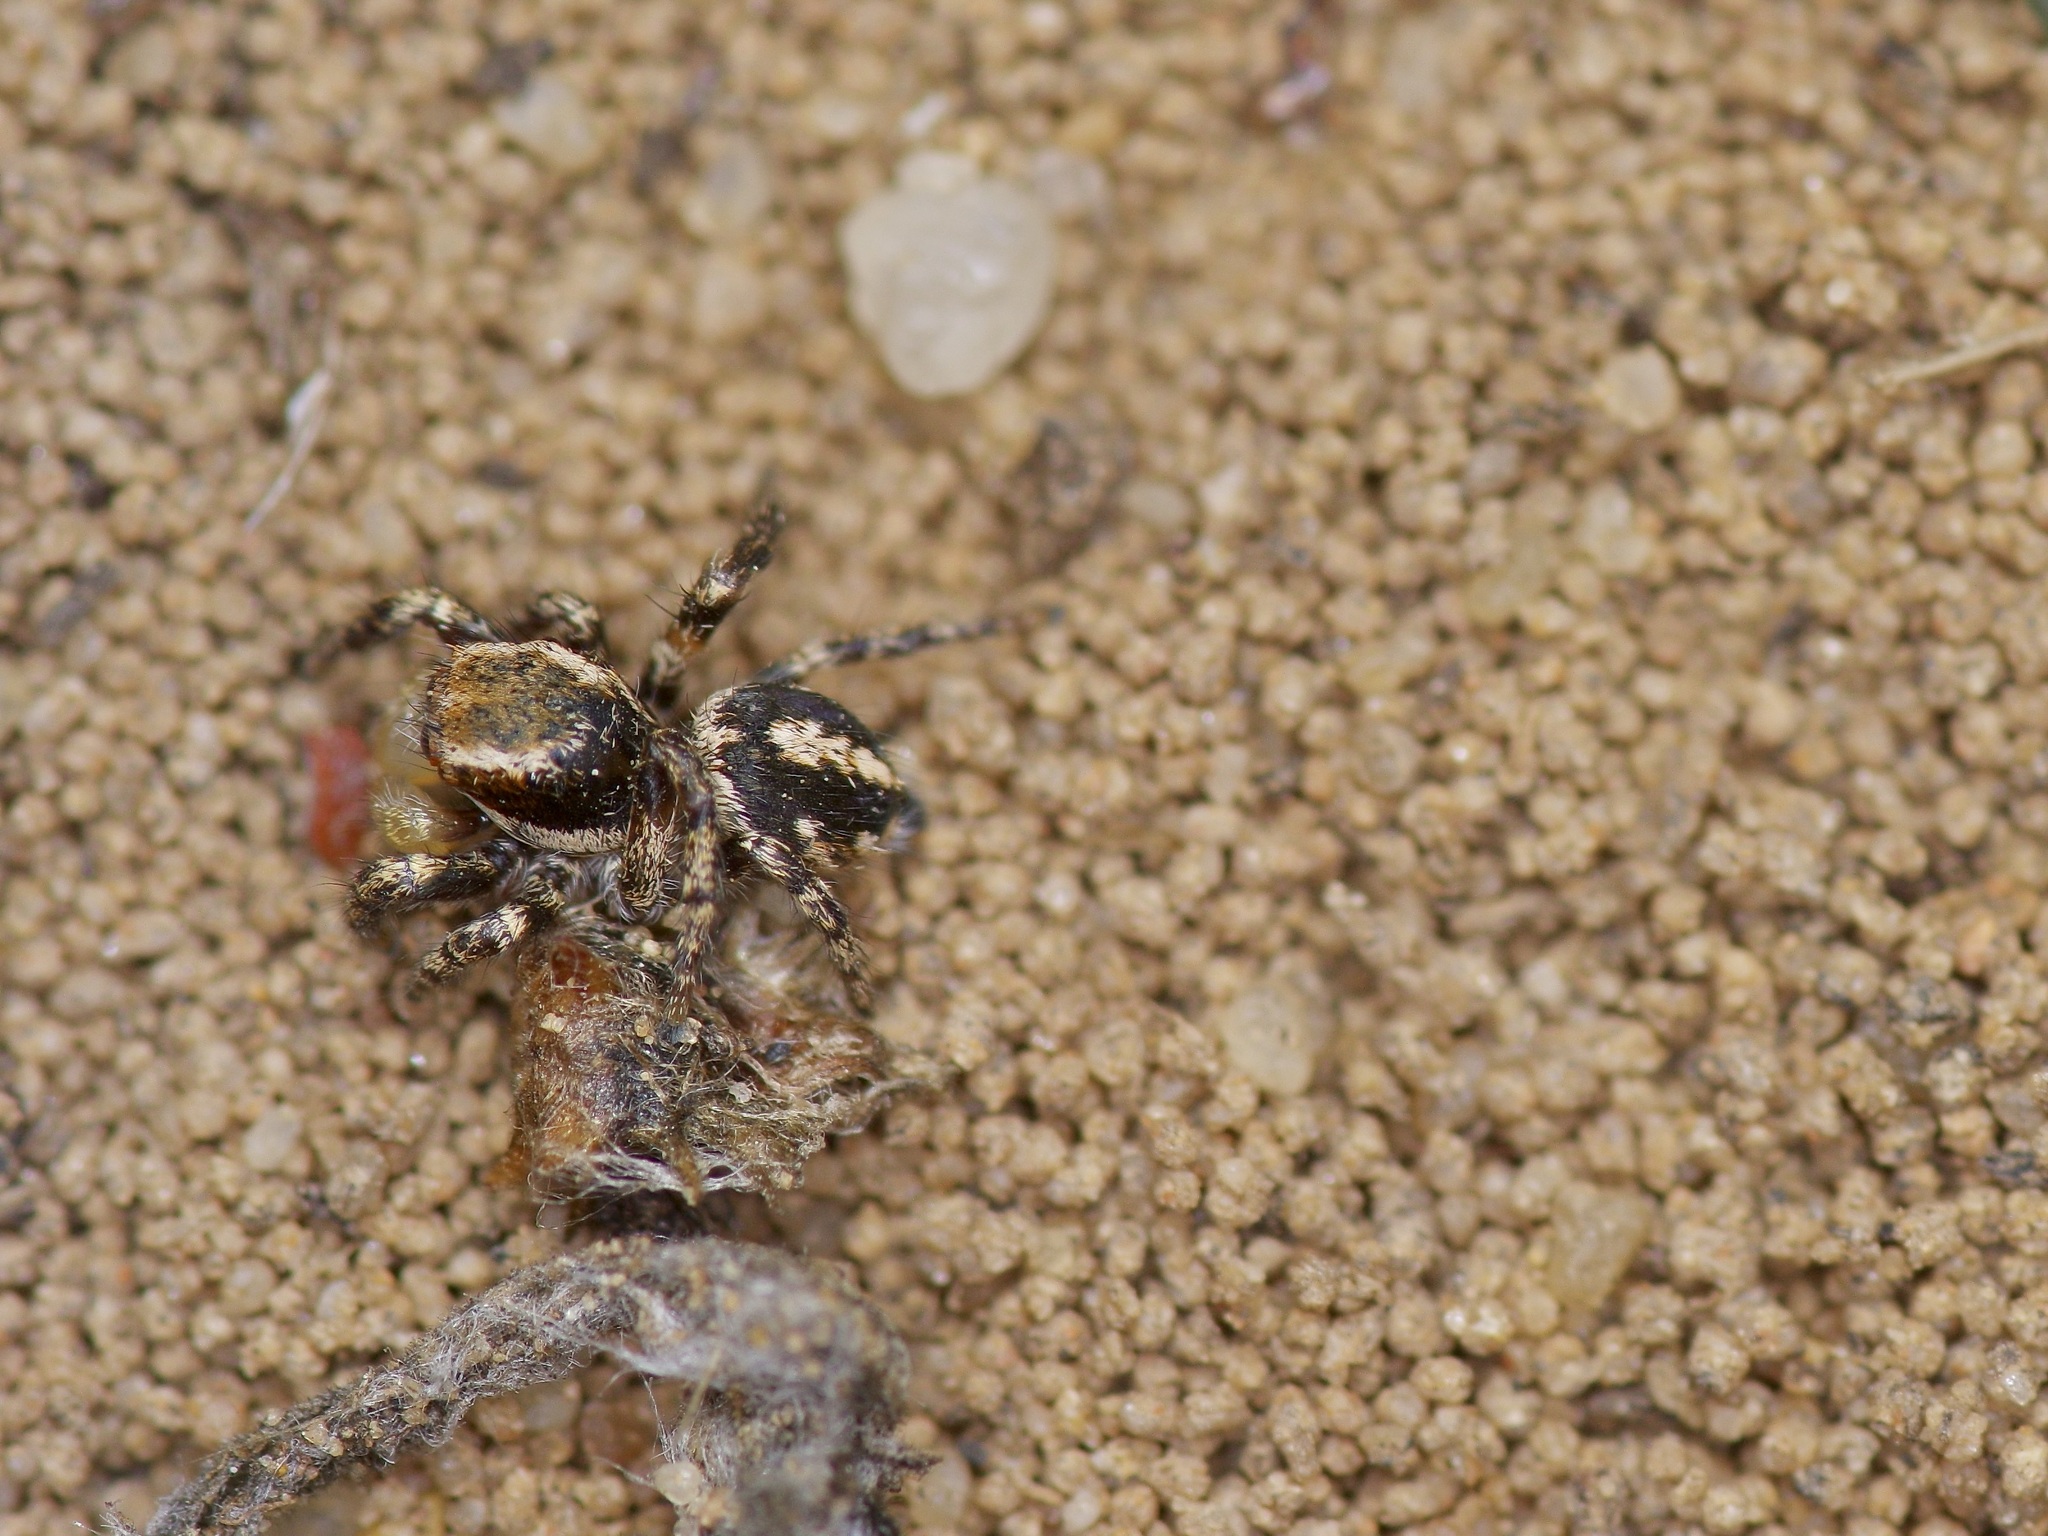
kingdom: Animalia
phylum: Arthropoda
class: Arachnida
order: Araneae
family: Salticidae
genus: Habronattus
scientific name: Habronattus cognatus
